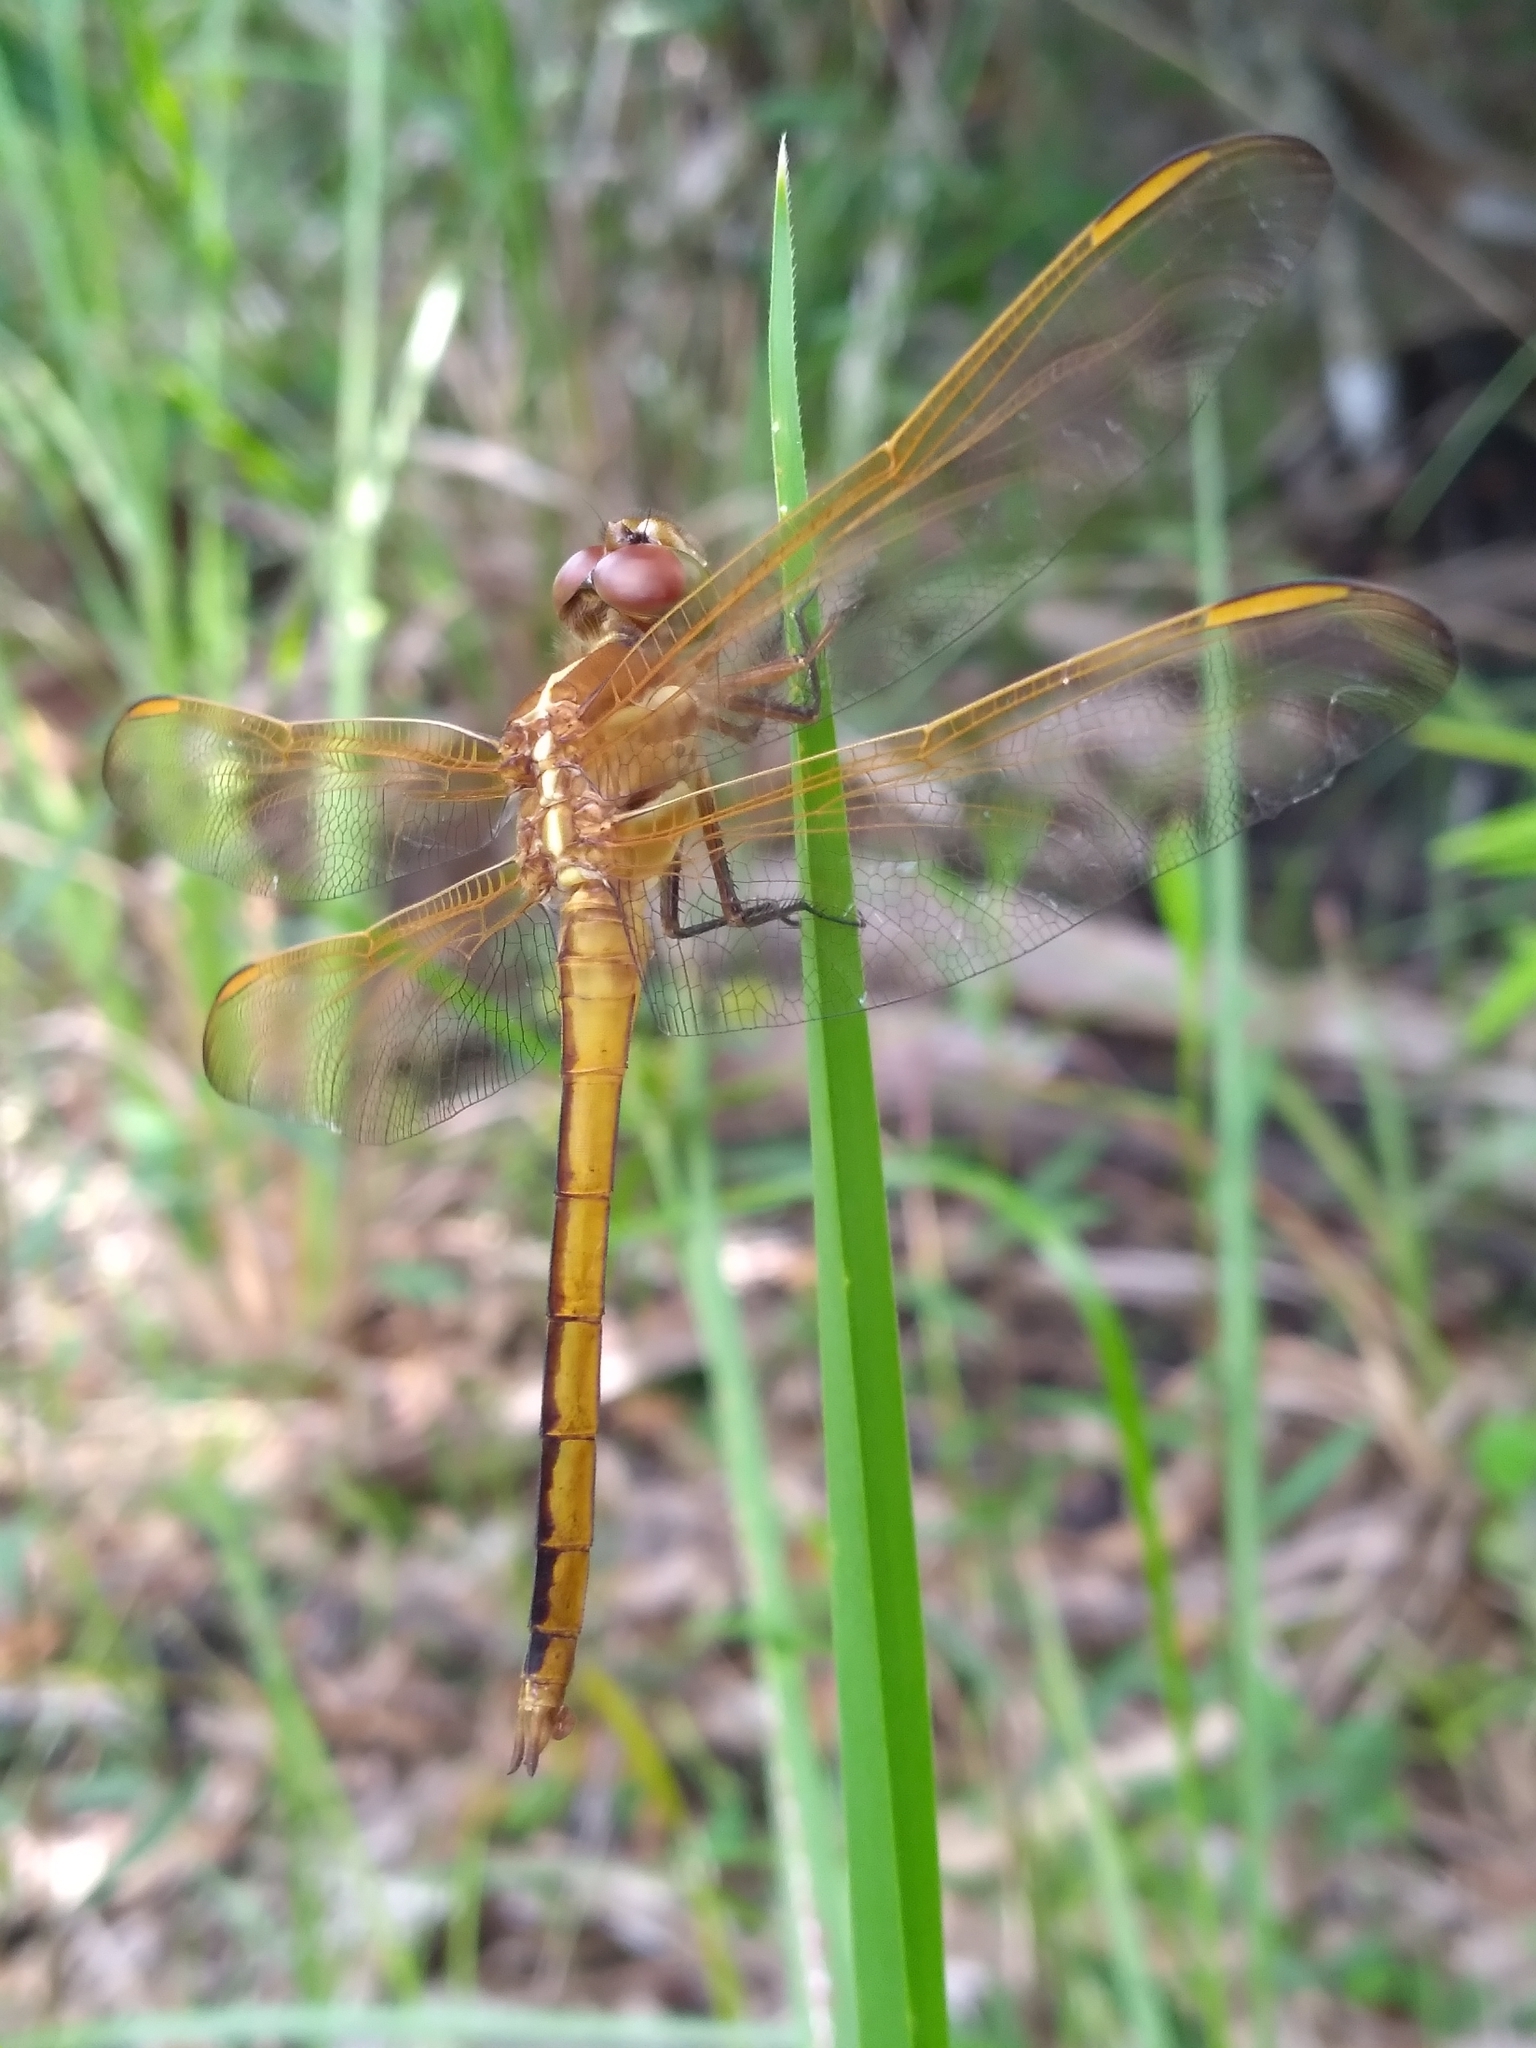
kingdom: Animalia
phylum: Arthropoda
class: Insecta
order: Odonata
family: Libellulidae
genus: Libellula
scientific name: Libellula auripennis
